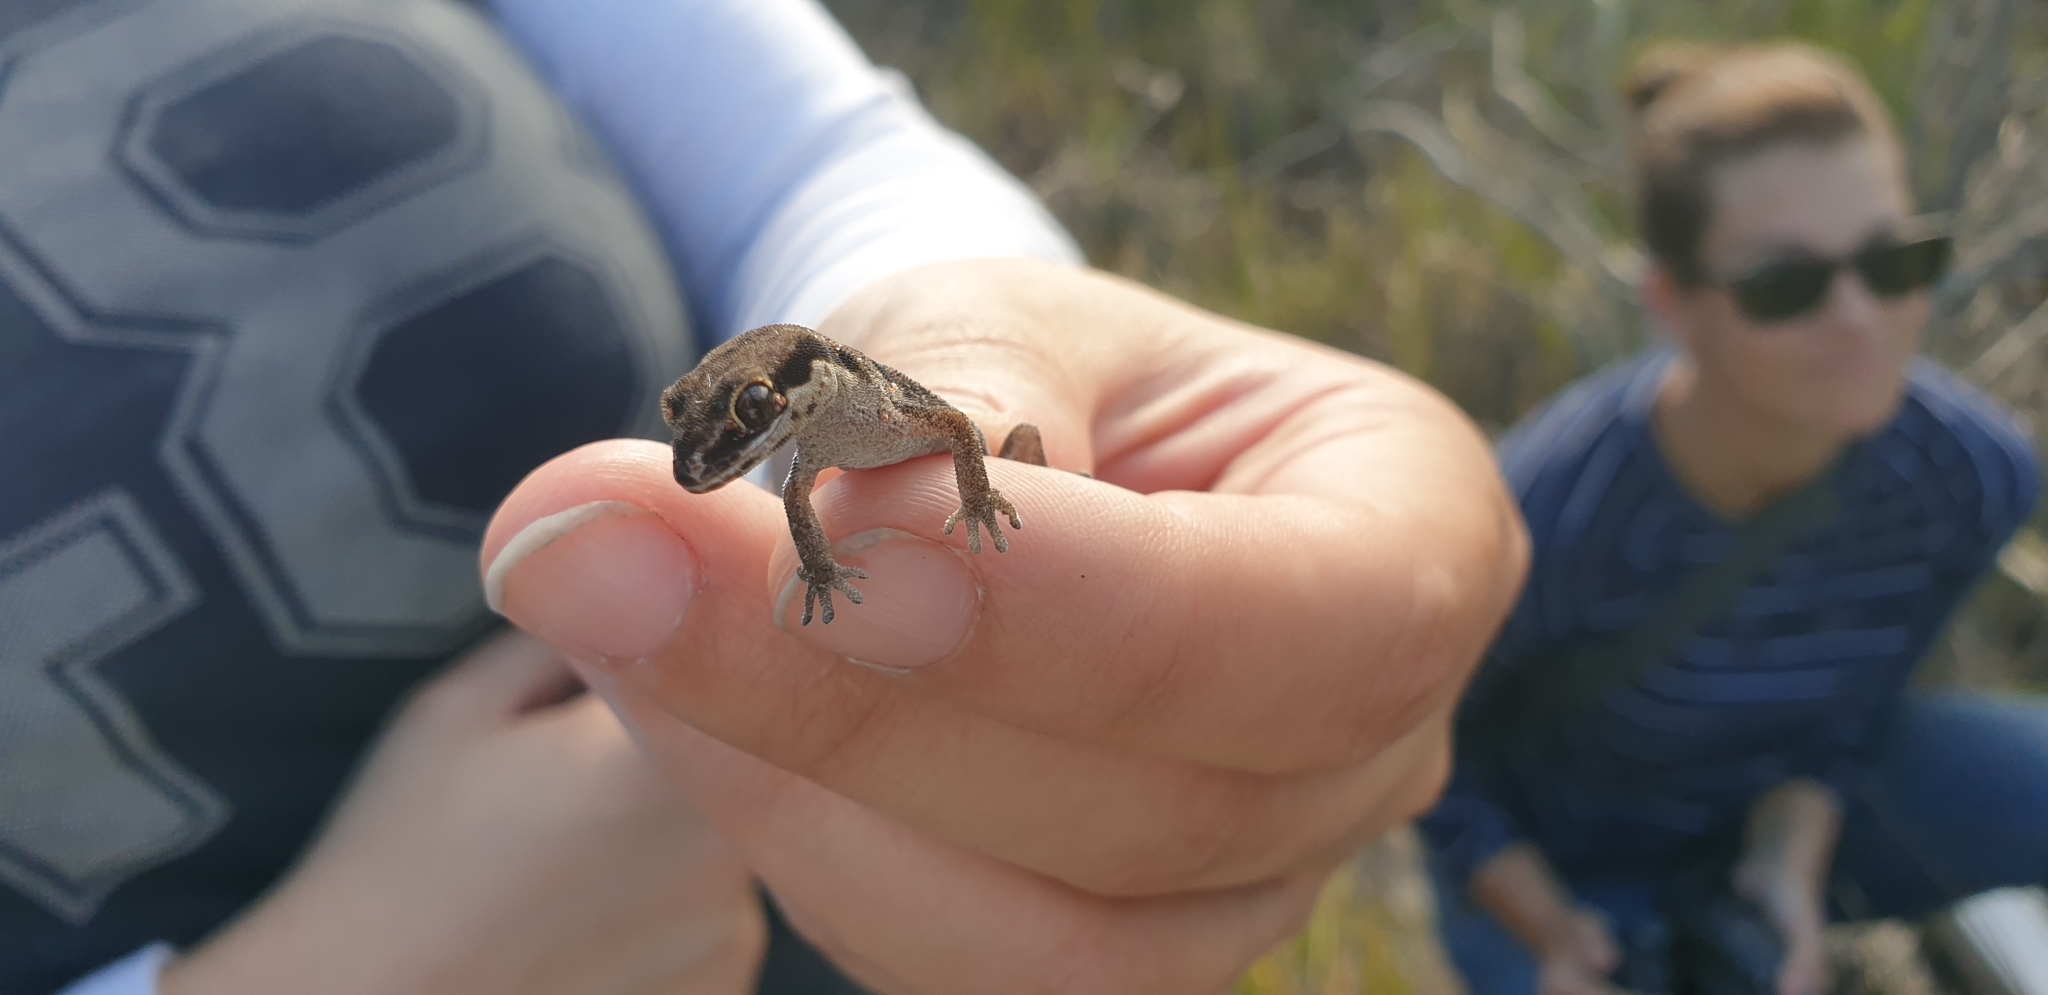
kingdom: Animalia
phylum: Chordata
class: Squamata
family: Gekkonidae
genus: Pachydactylus
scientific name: Pachydactylus geitje
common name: Ocellated thick-toed gecko
